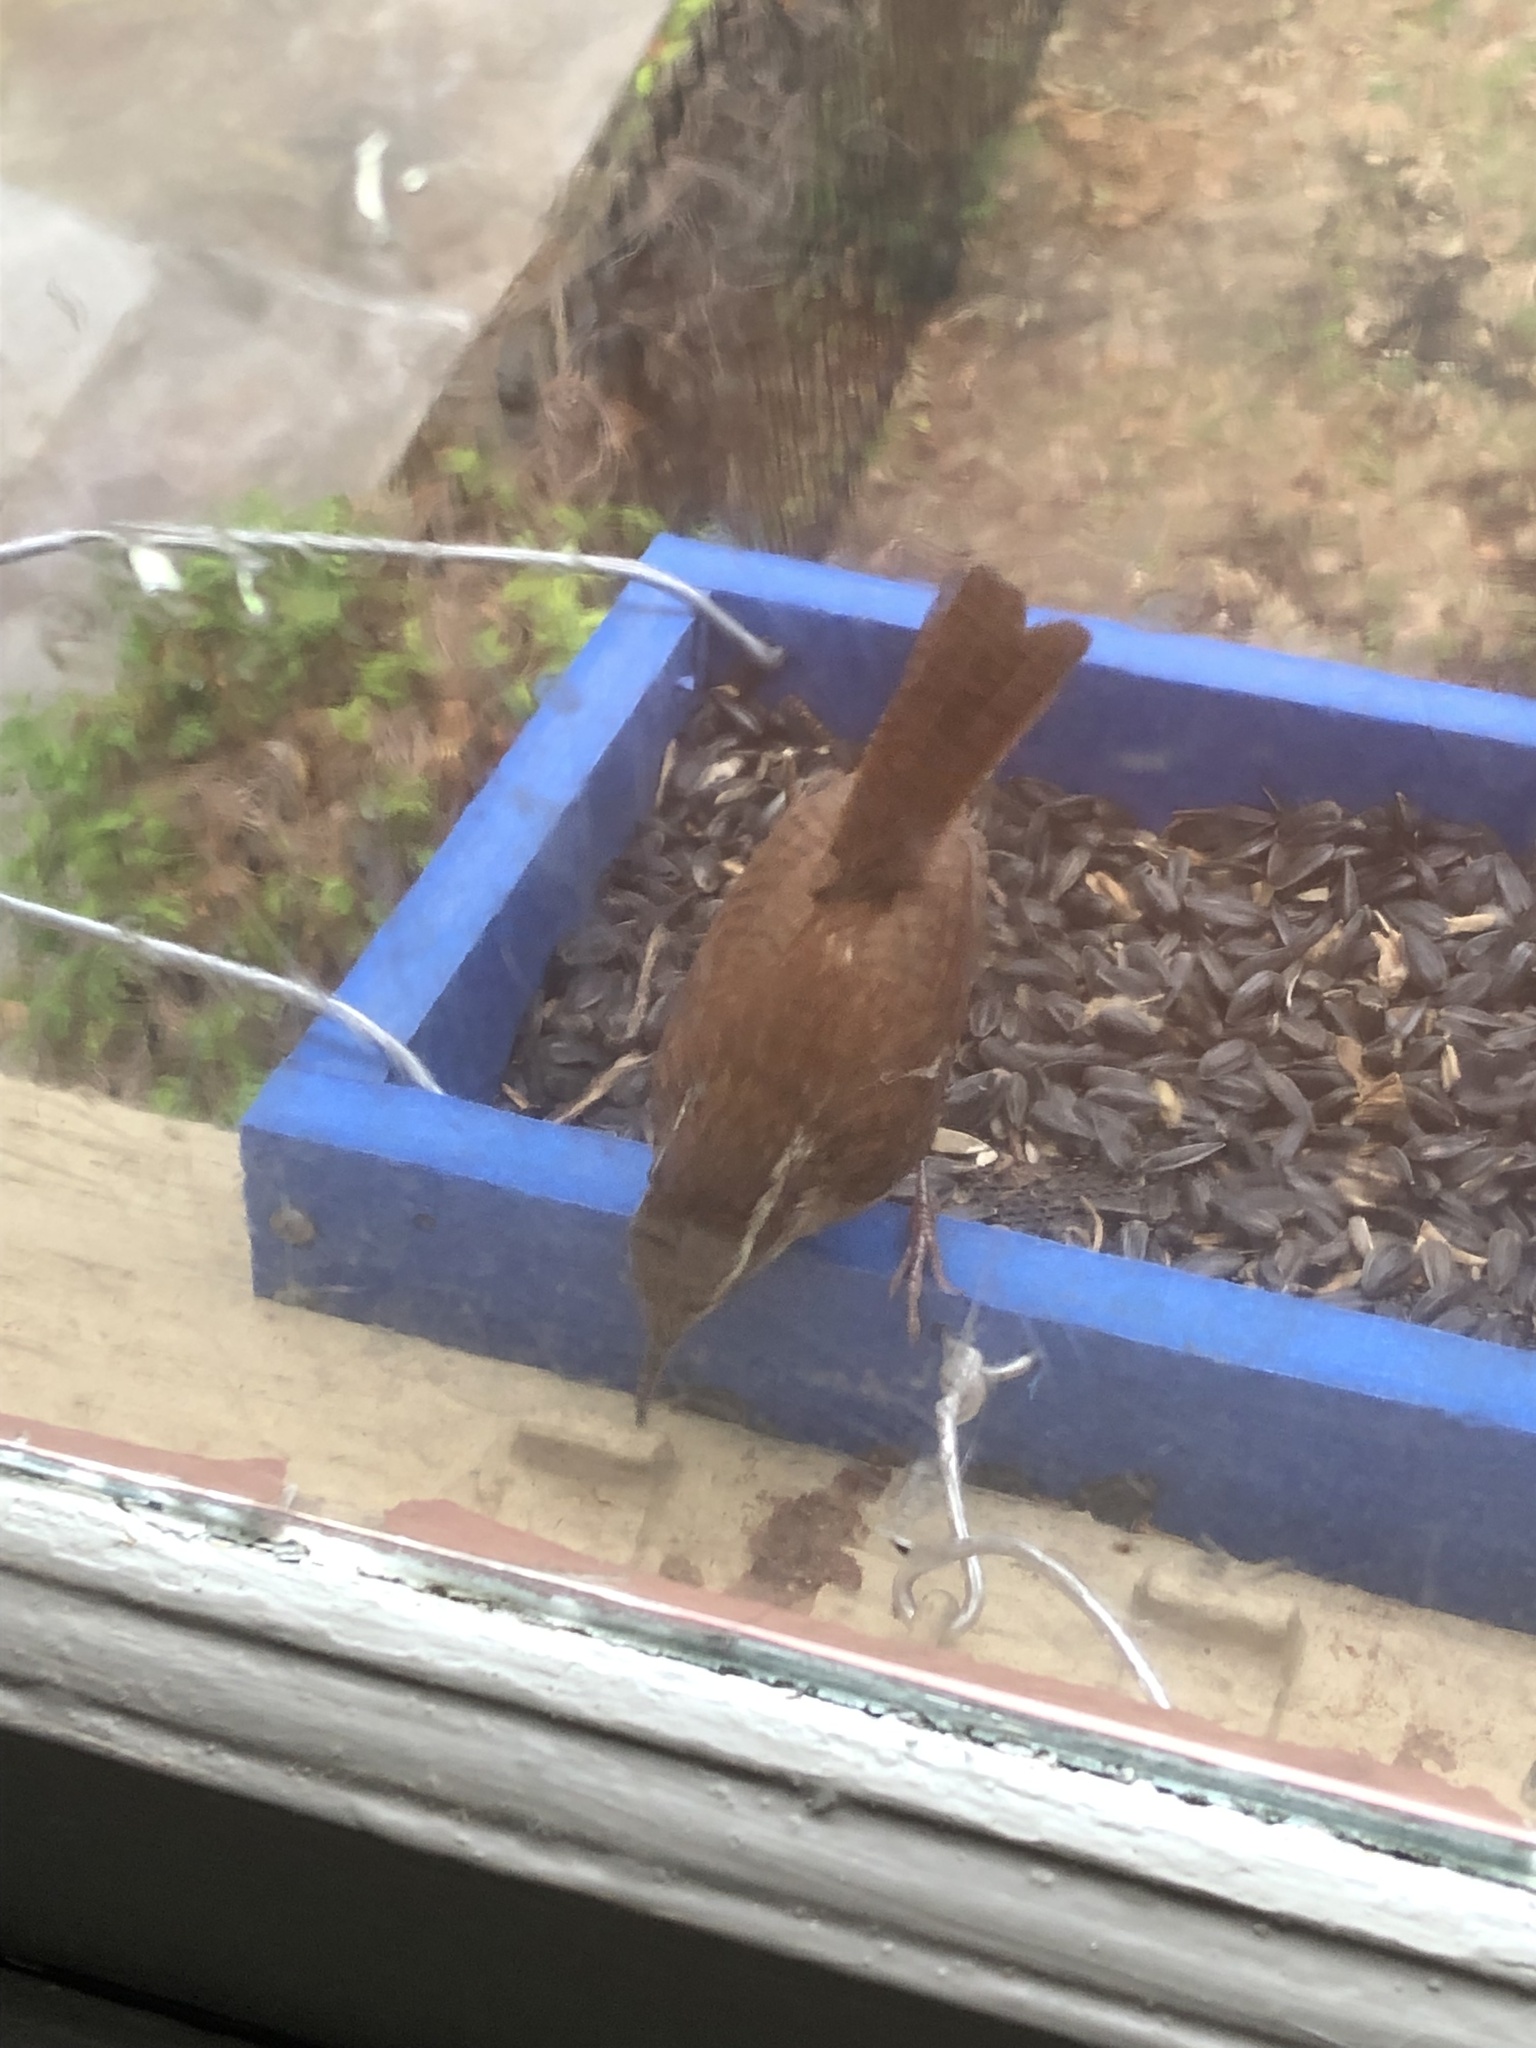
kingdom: Animalia
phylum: Chordata
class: Aves
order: Passeriformes
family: Troglodytidae
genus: Thryomanes
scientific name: Thryomanes bewickii
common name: Bewick's wren
